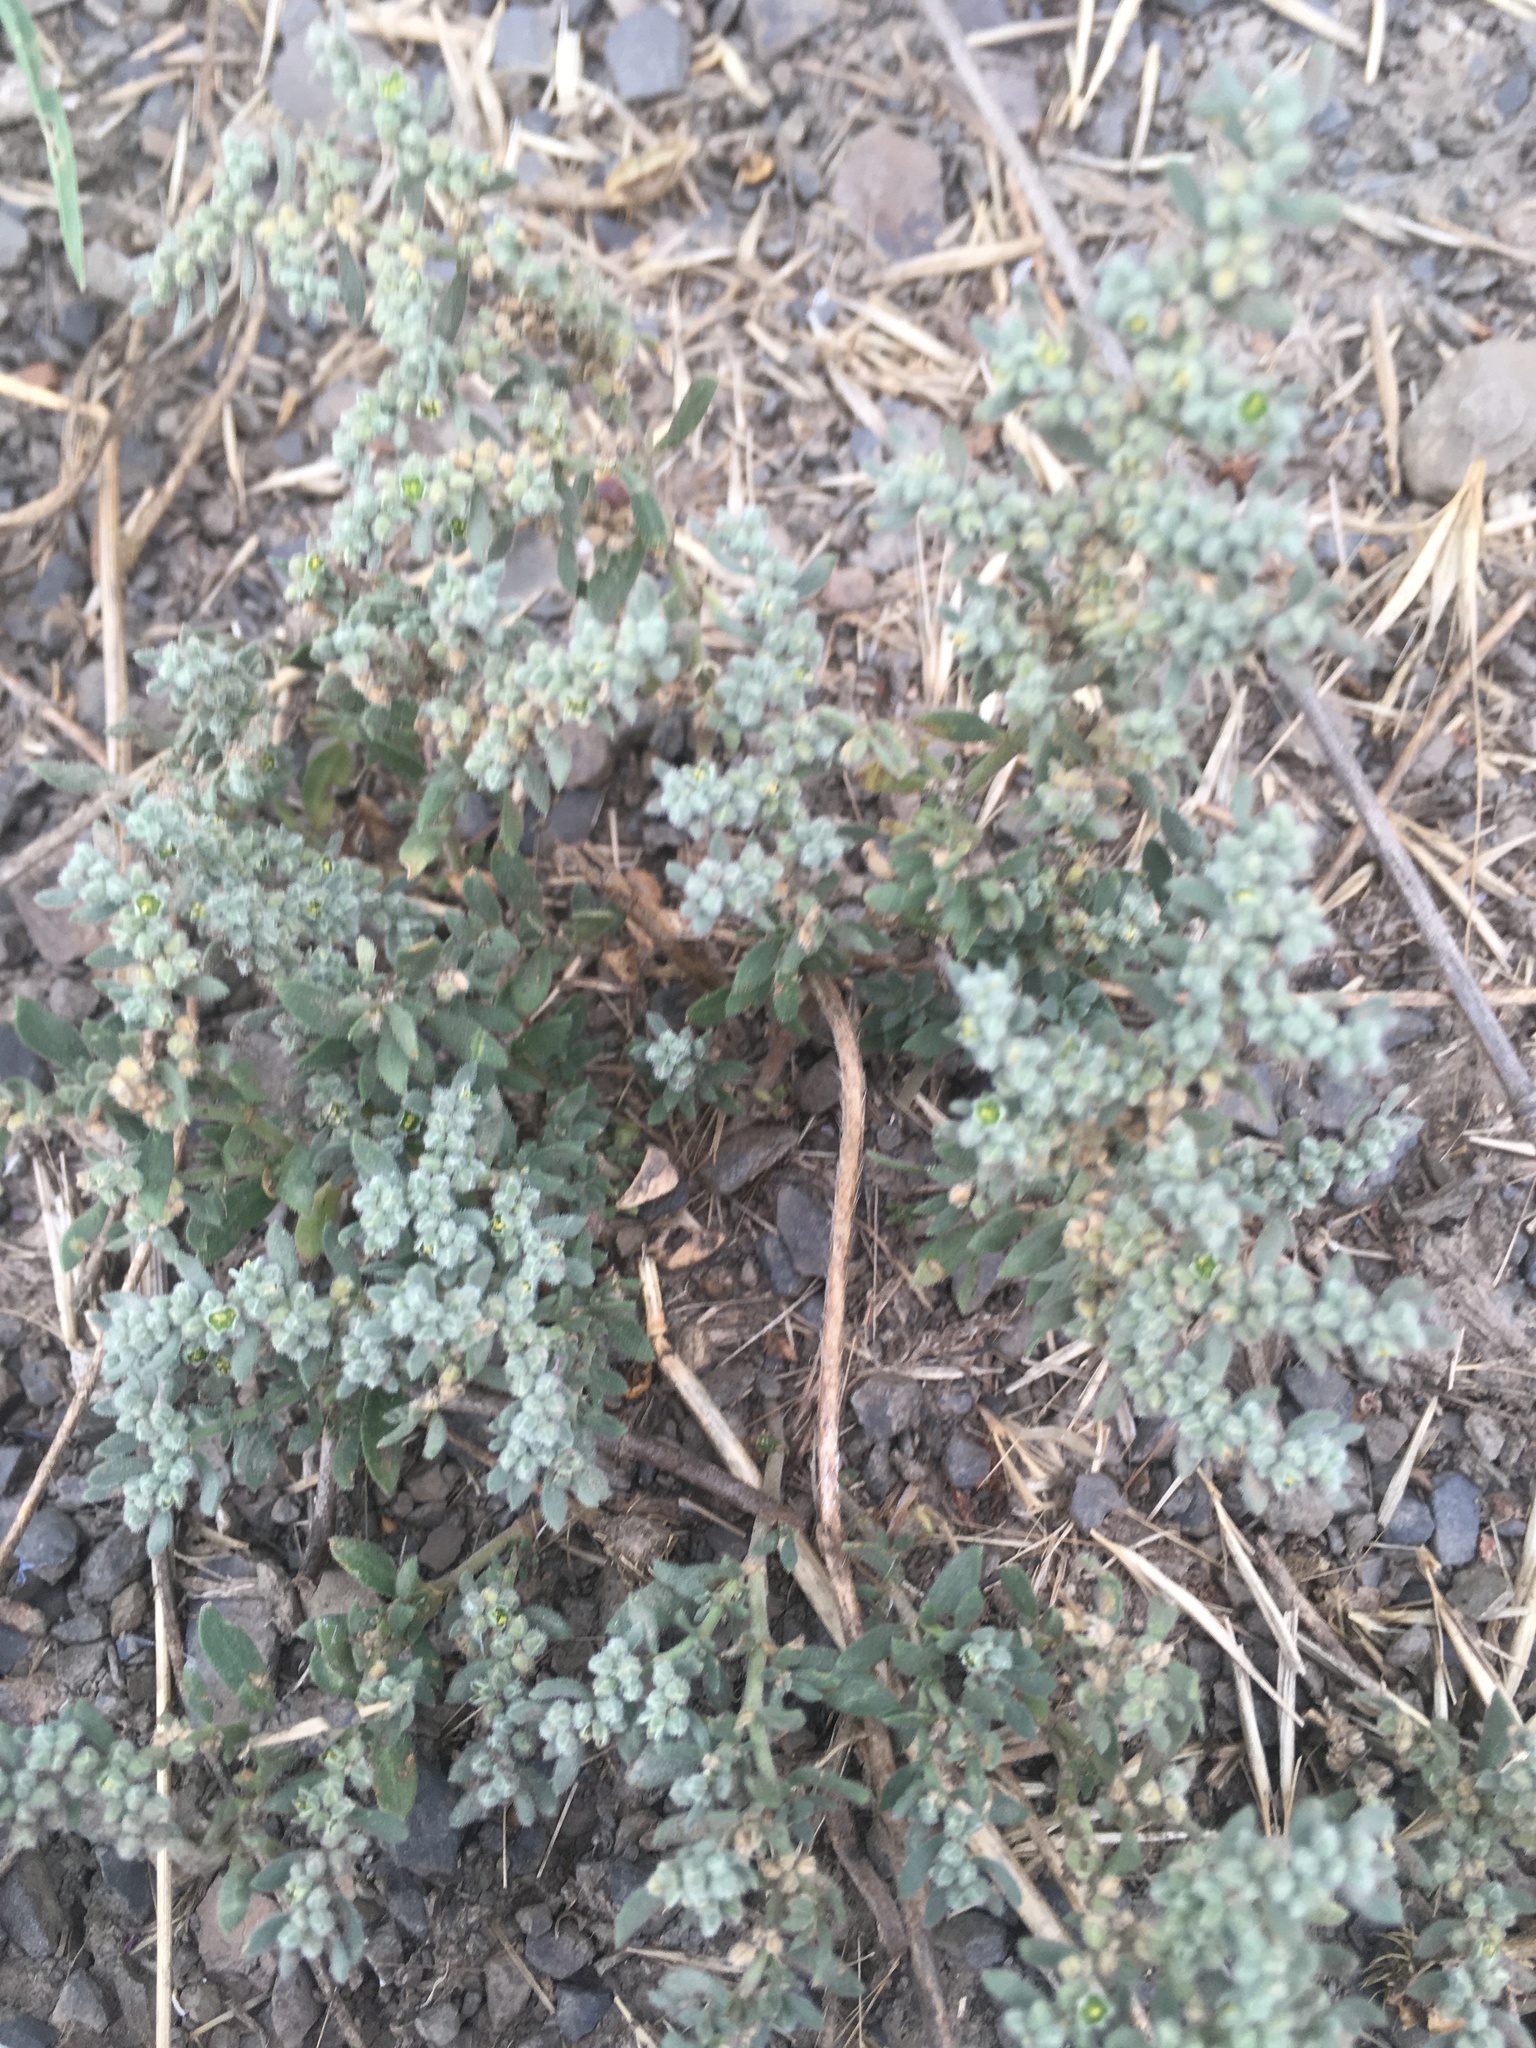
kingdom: Plantae
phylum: Tracheophyta
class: Magnoliopsida
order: Caryophyllales
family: Caryophyllaceae
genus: Herniaria
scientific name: Herniaria incana
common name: Gray rupturewort
